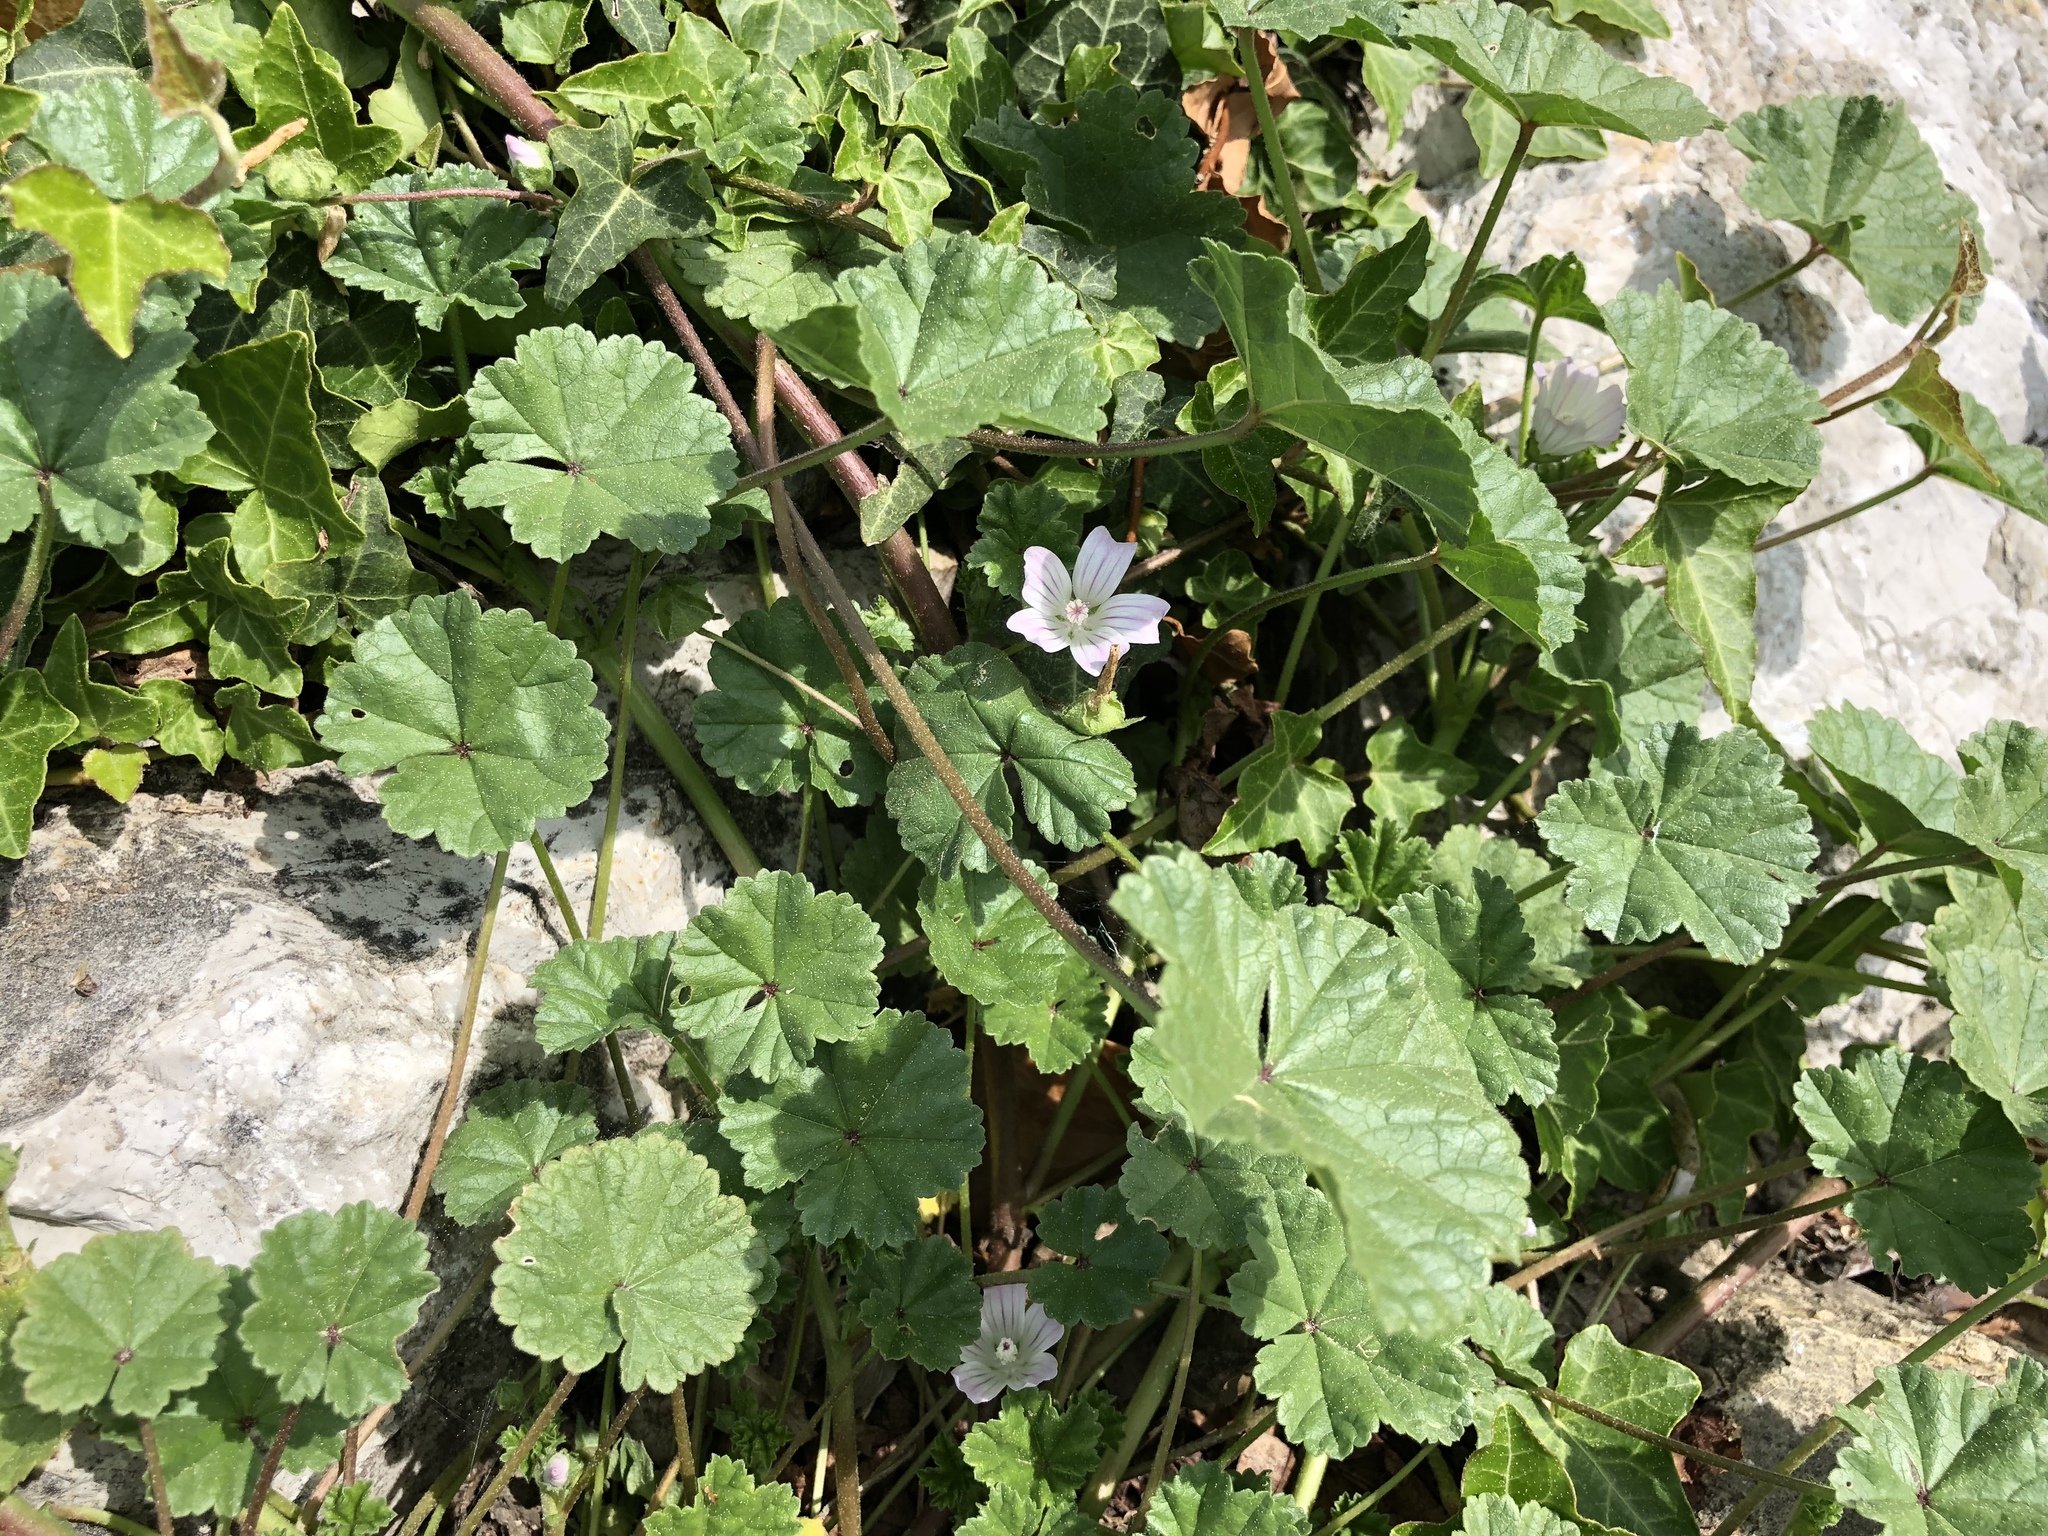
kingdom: Plantae
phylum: Tracheophyta
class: Magnoliopsida
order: Malvales
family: Malvaceae
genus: Malva
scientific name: Malva neglecta
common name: Common mallow
